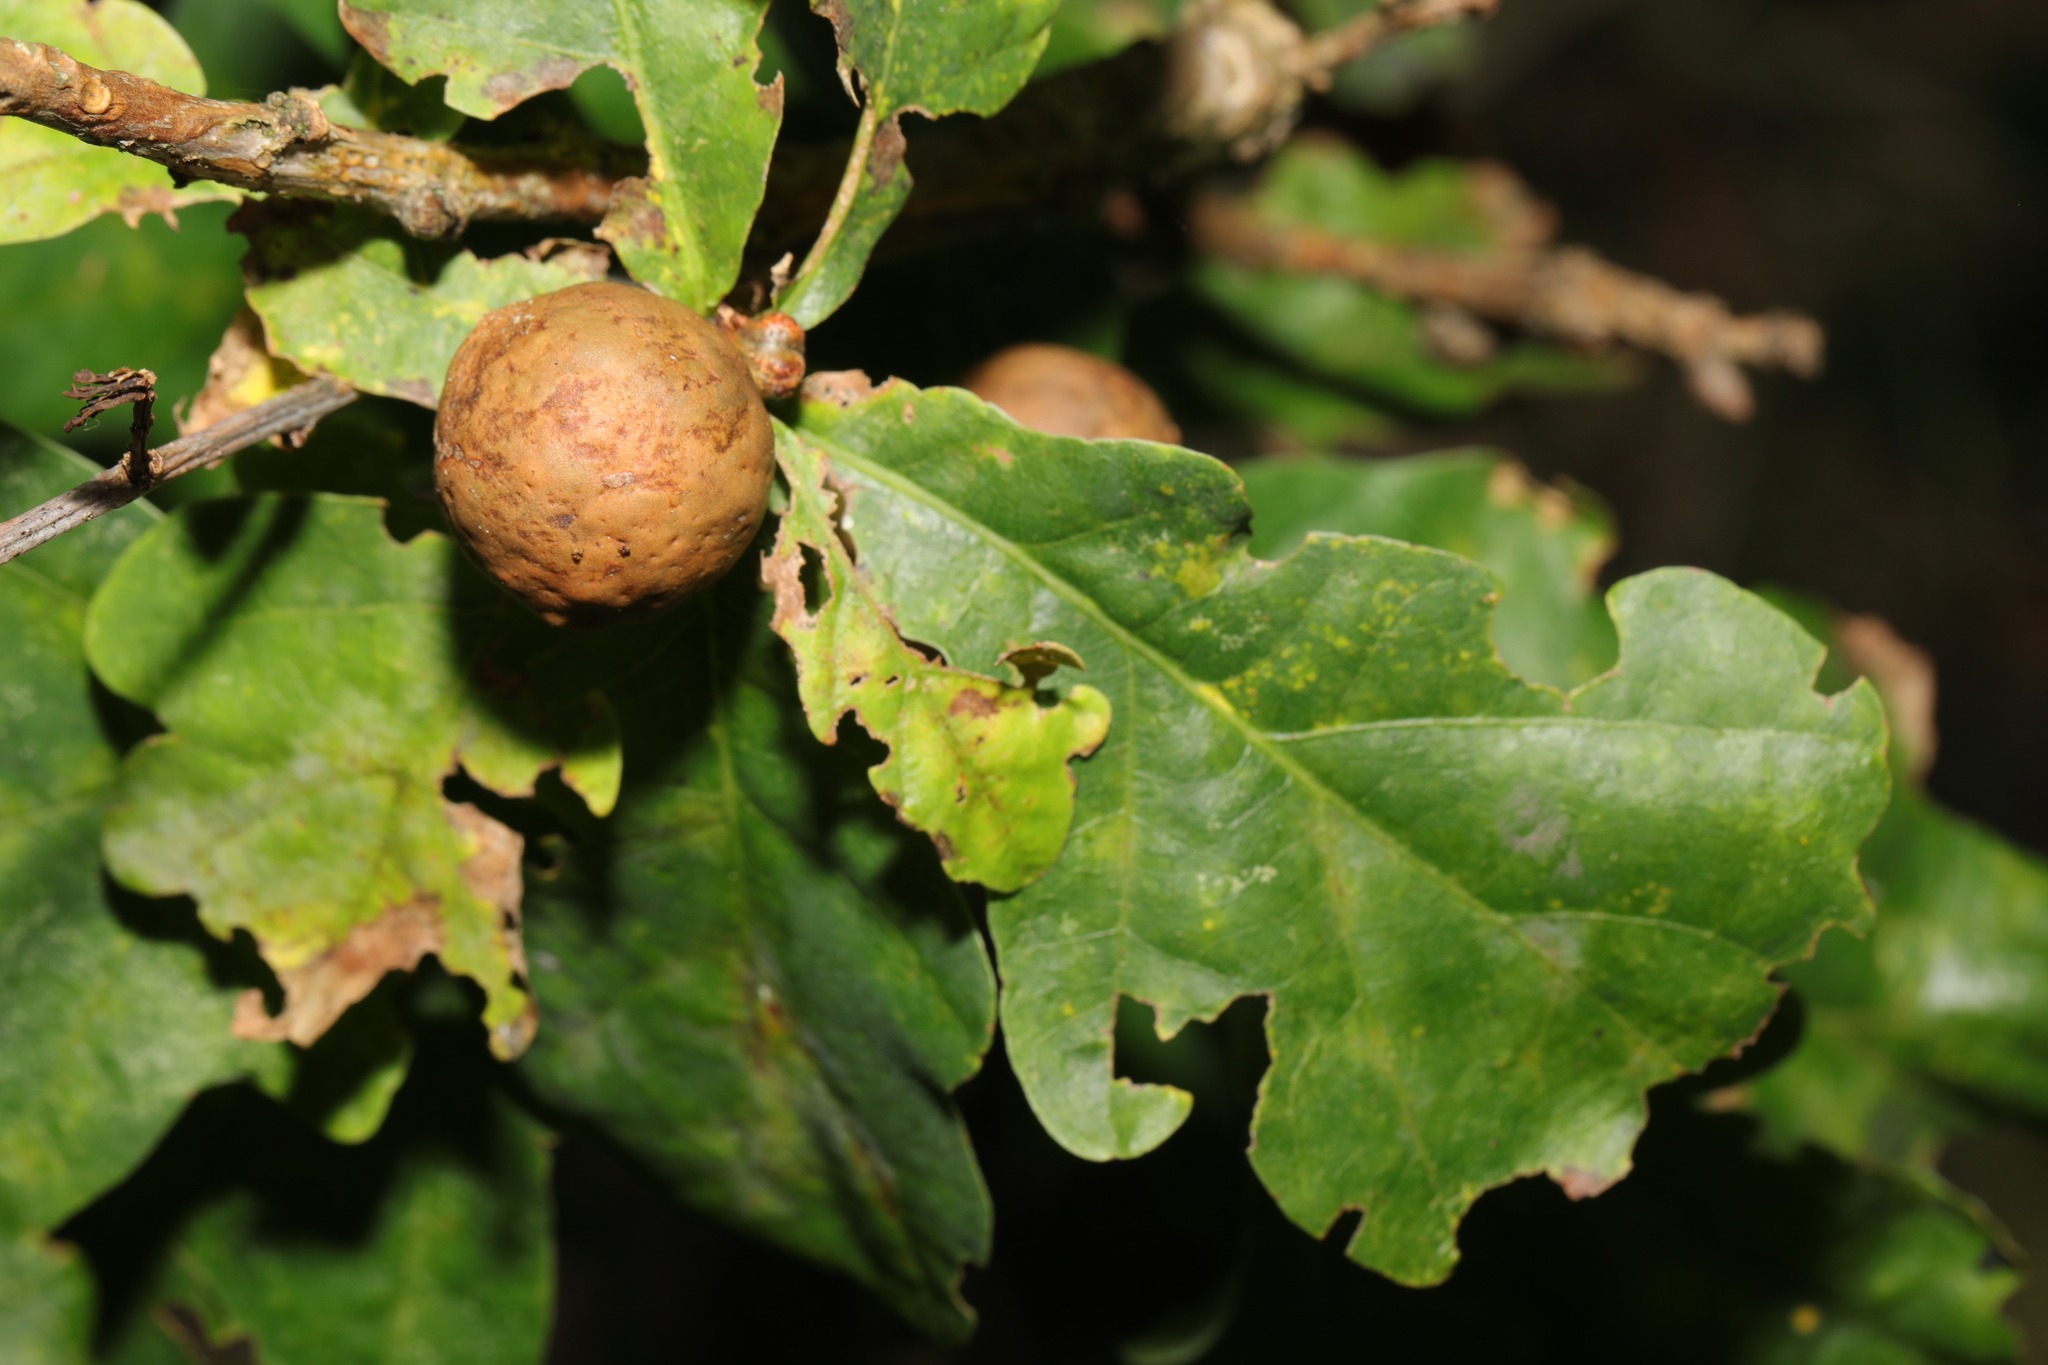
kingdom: Animalia
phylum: Arthropoda
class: Insecta
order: Hymenoptera
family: Cynipidae
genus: Andricus
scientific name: Andricus kollari
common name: Marble gall
